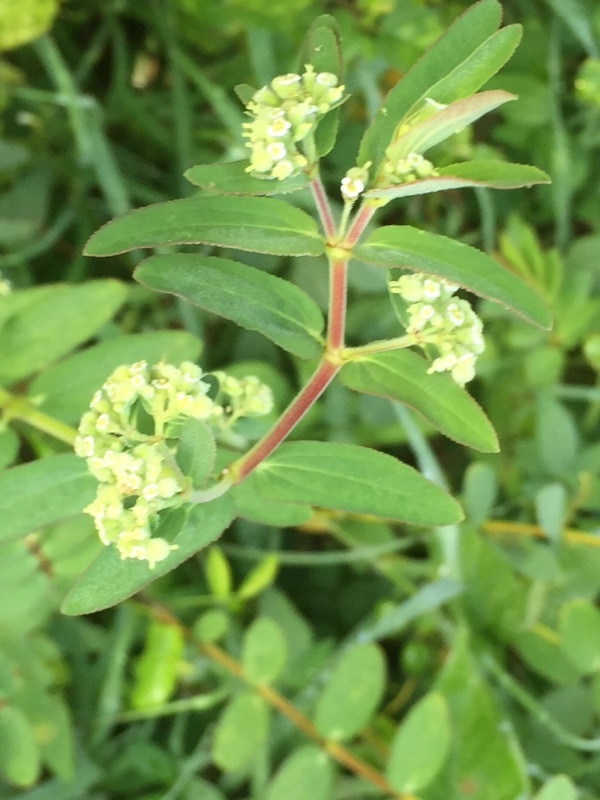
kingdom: Plantae
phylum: Tracheophyta
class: Magnoliopsida
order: Malpighiales
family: Euphorbiaceae
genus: Euphorbia
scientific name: Euphorbia lasiocarpa
